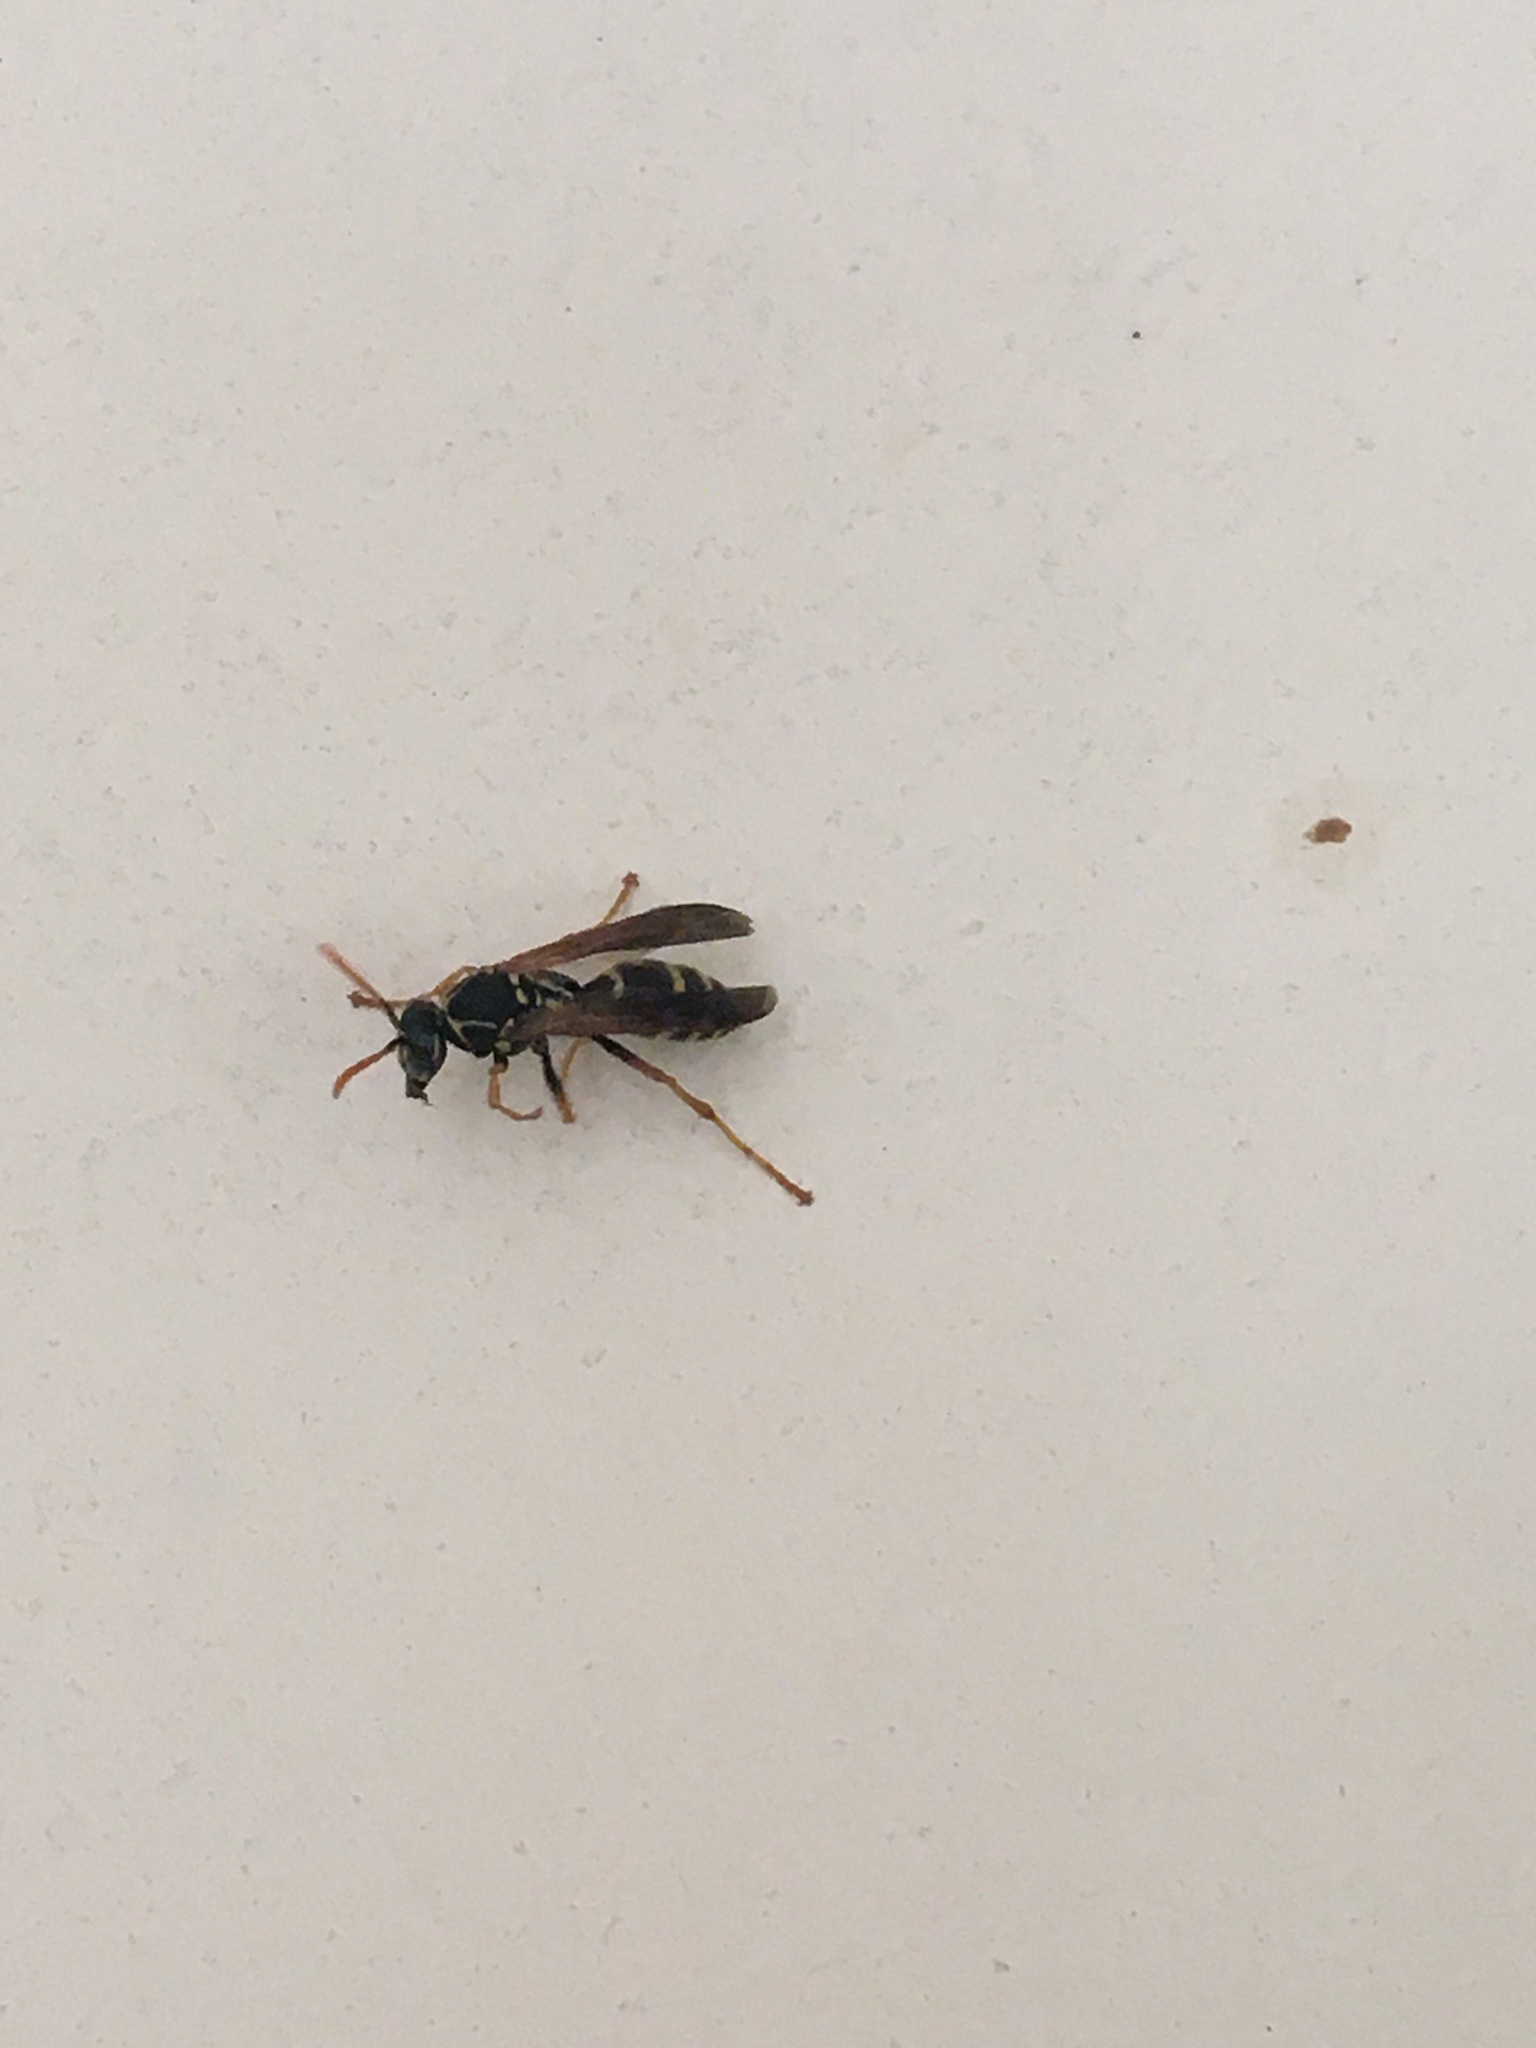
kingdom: Animalia
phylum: Arthropoda
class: Insecta
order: Hymenoptera
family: Eumenidae
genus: Polistes
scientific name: Polistes chinensis
